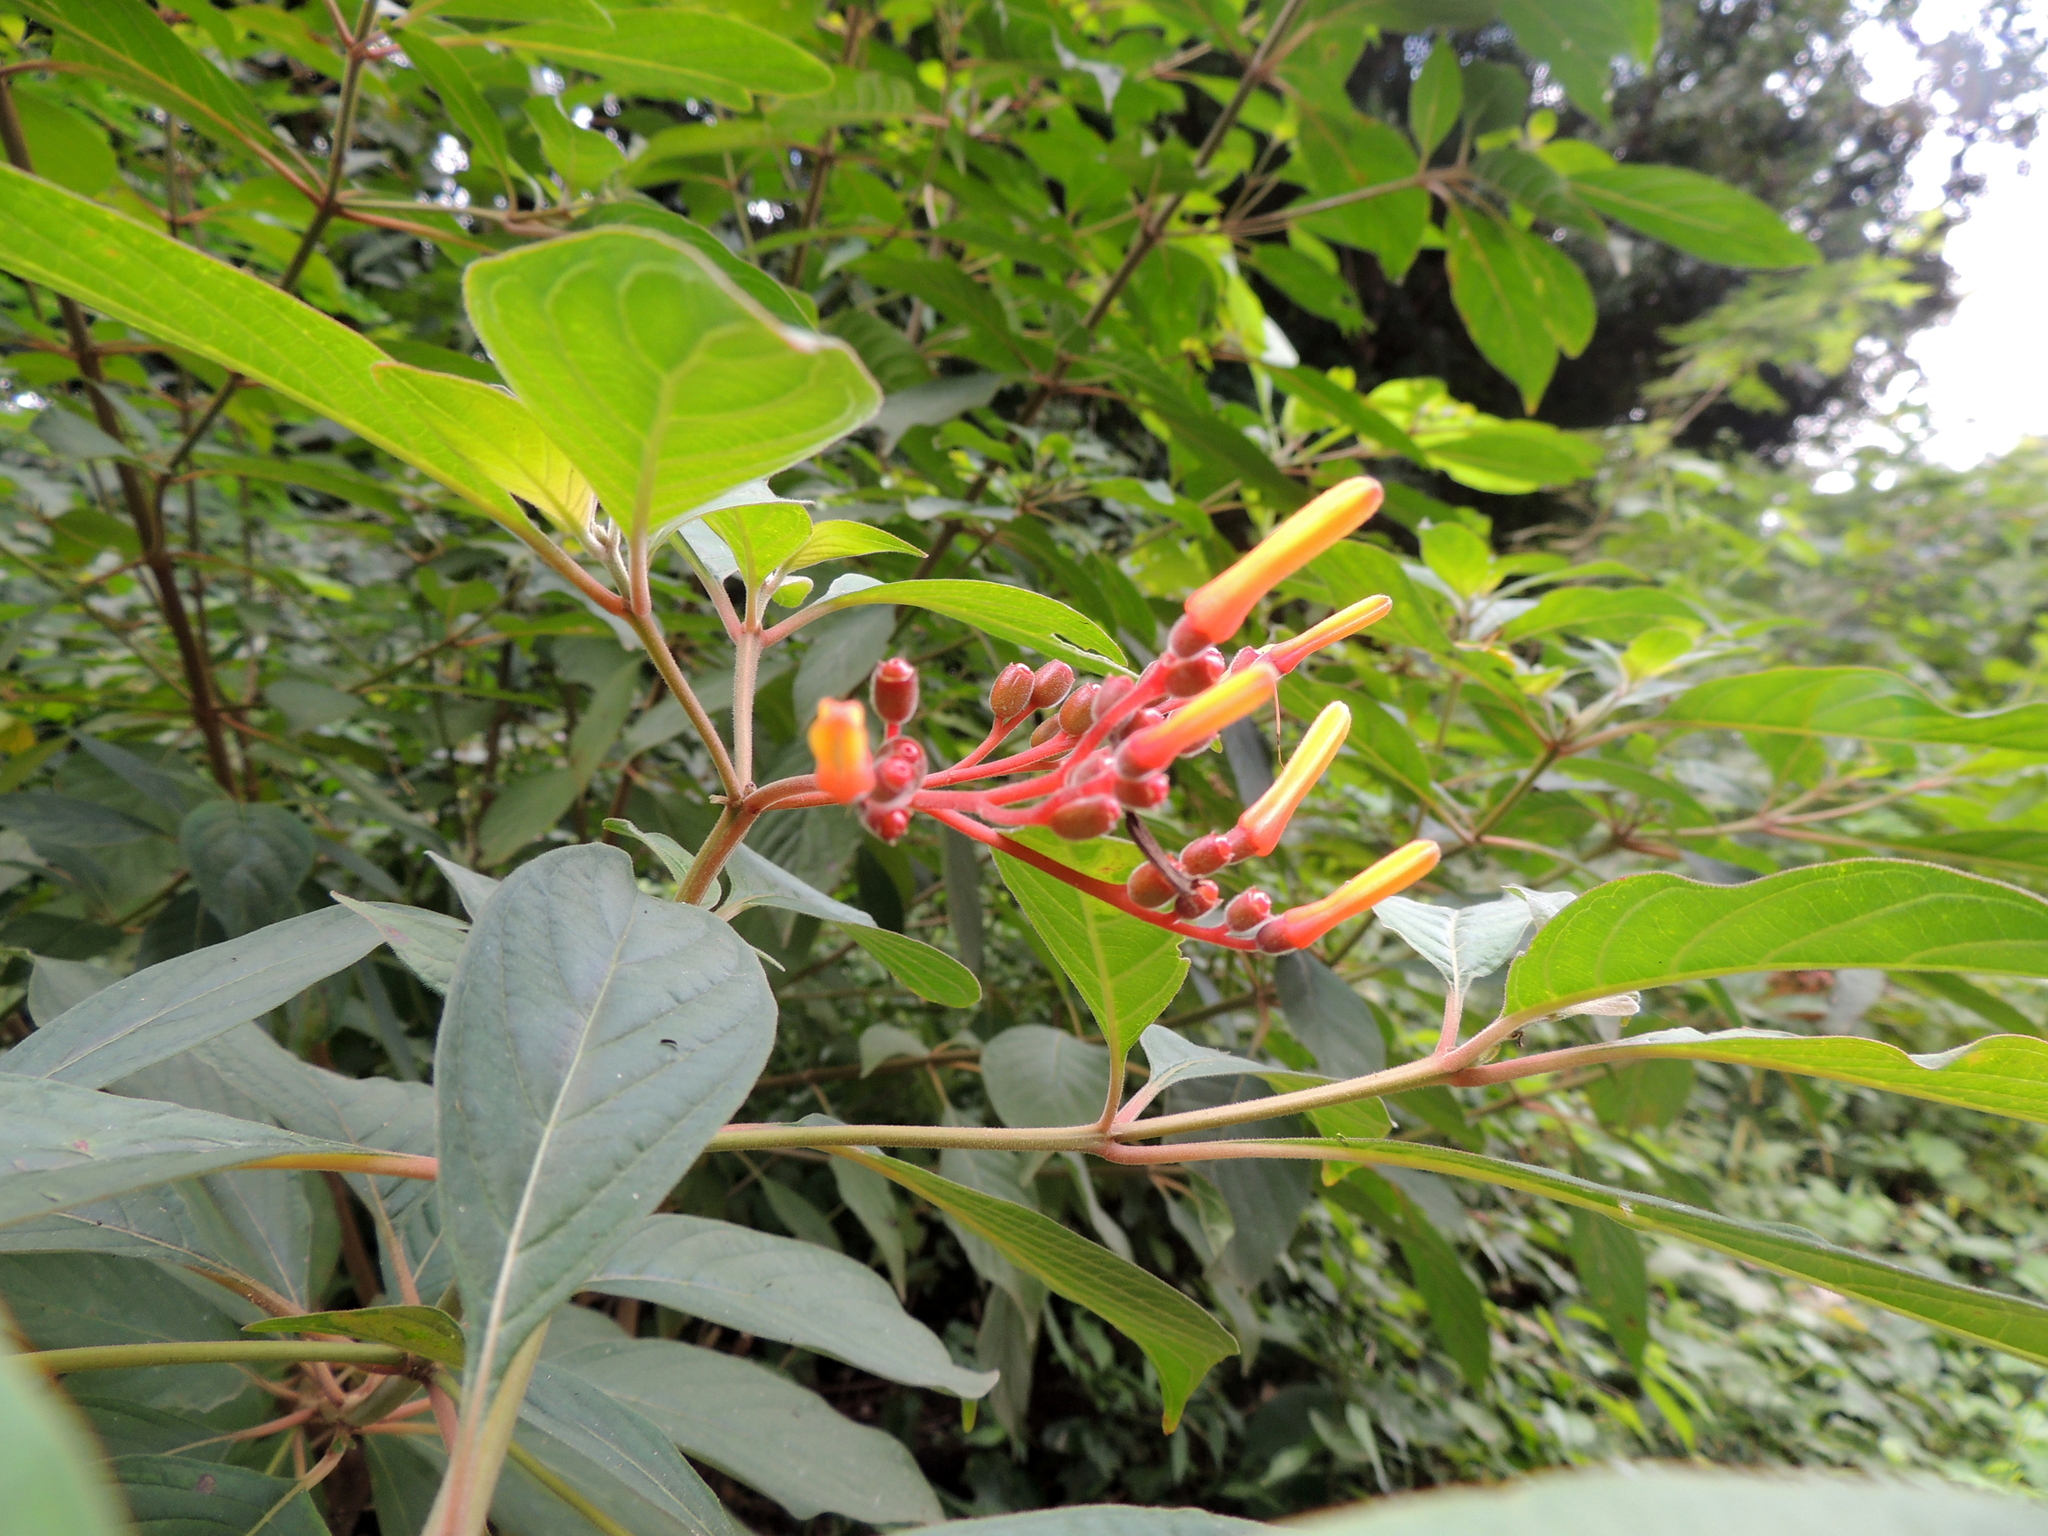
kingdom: Plantae
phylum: Tracheophyta
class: Magnoliopsida
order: Gentianales
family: Rubiaceae
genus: Hamelia
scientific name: Hamelia patens
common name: Redhead
